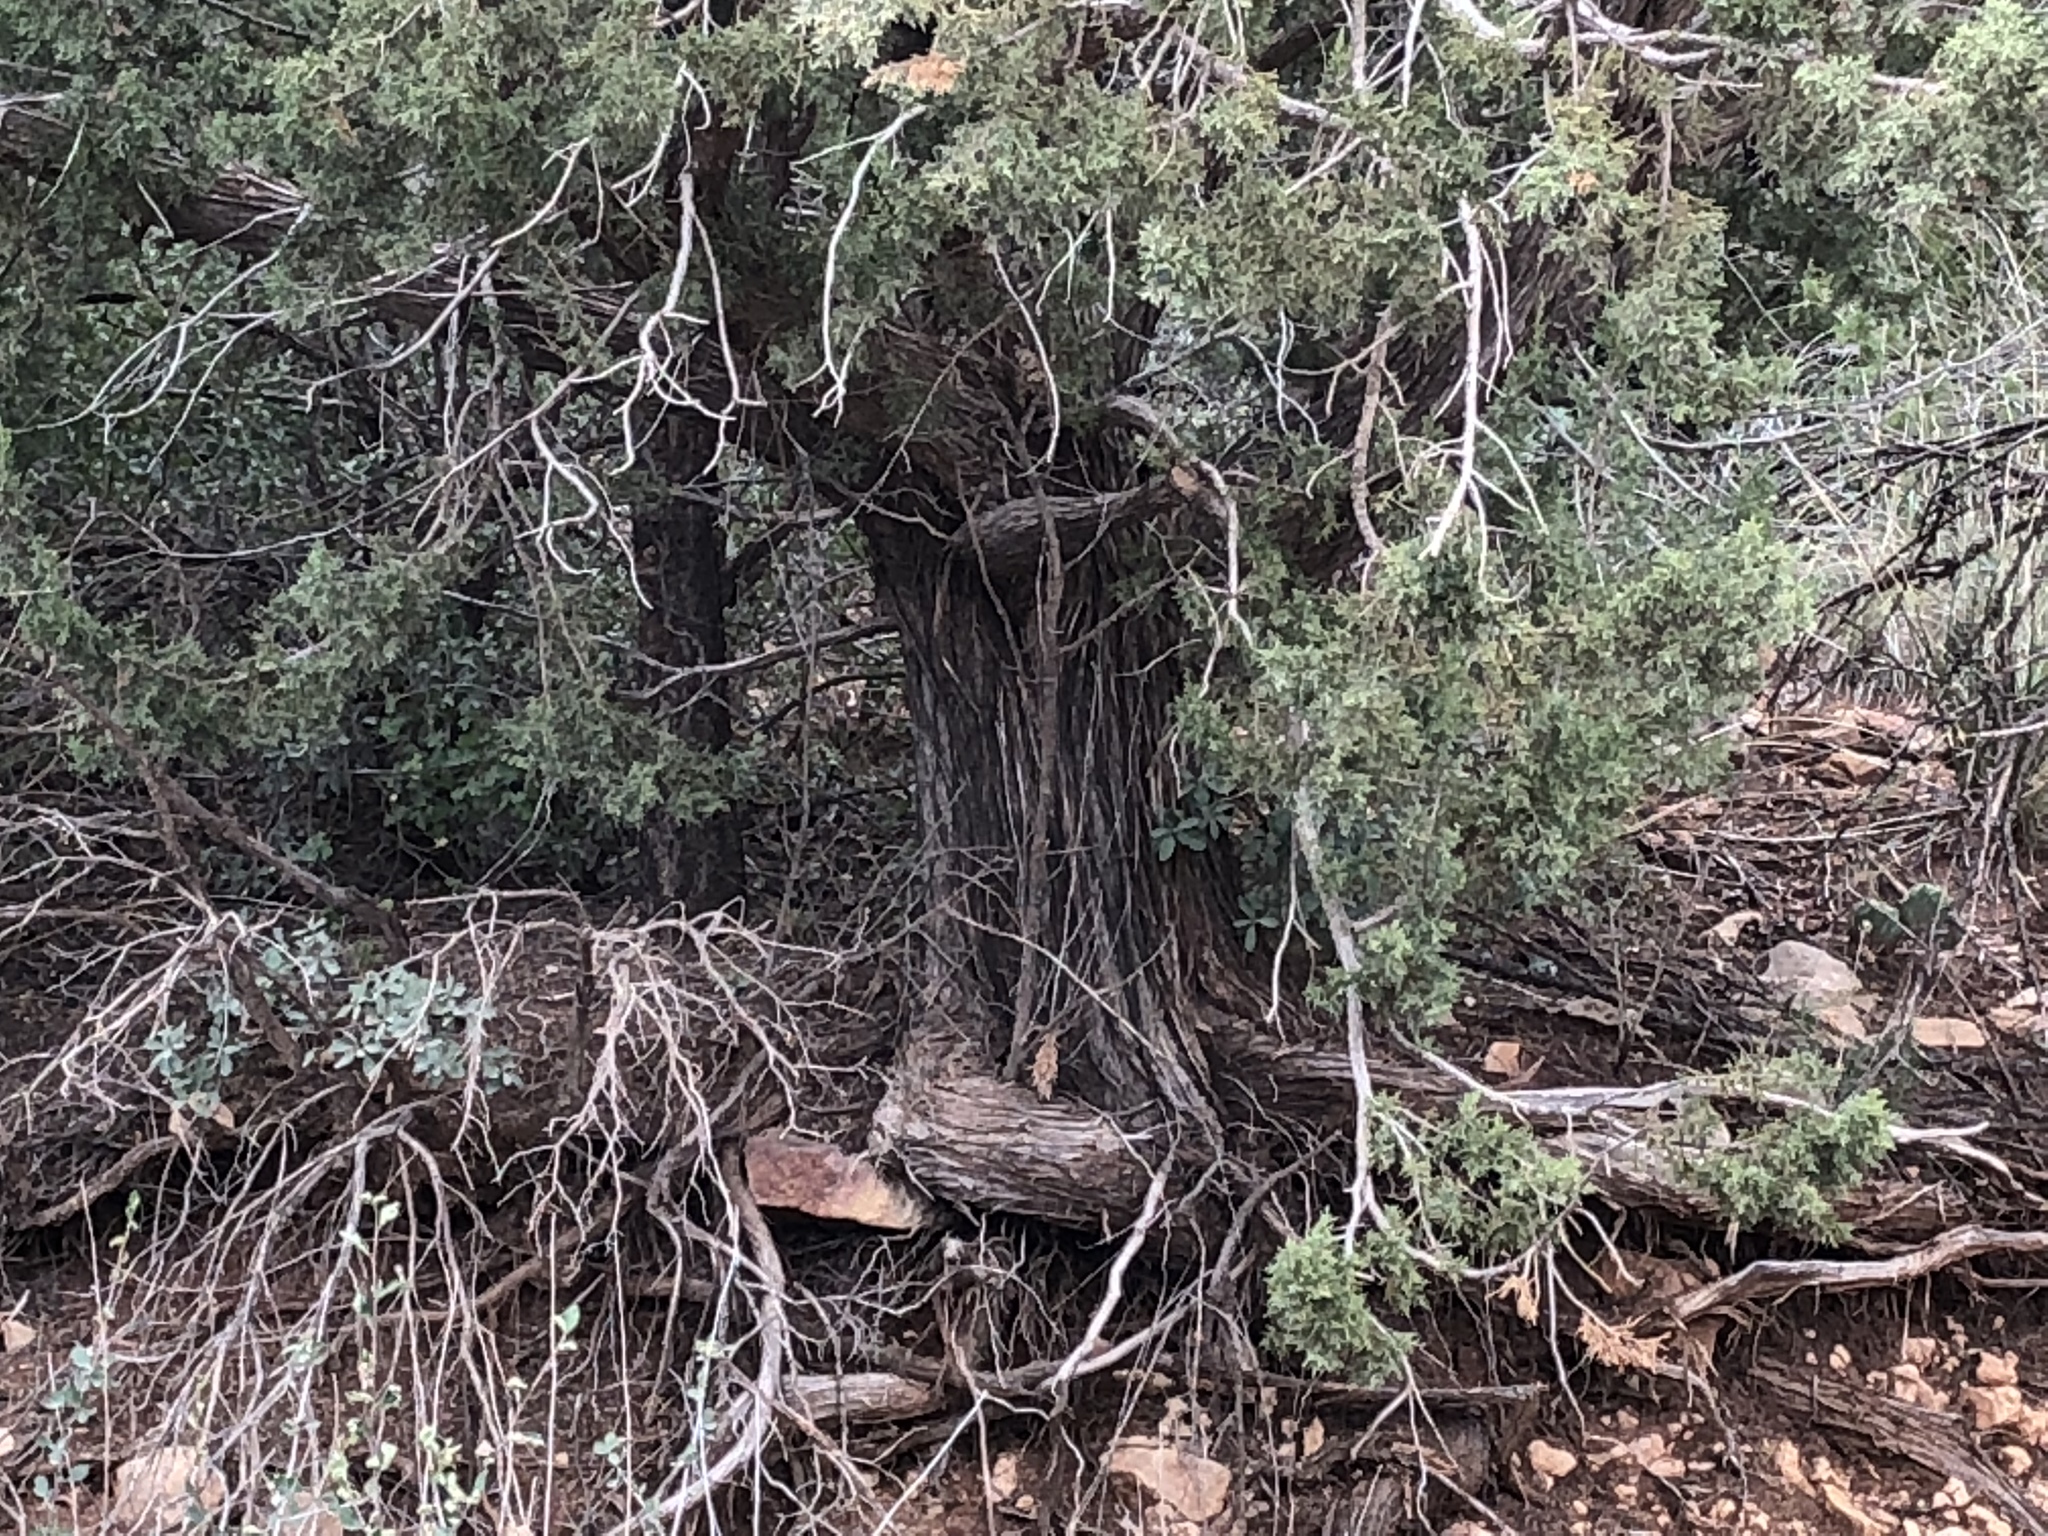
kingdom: Plantae
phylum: Tracheophyta
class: Pinopsida
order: Pinales
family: Cupressaceae
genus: Juniperus
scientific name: Juniperus monosperma
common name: One-seed juniper
